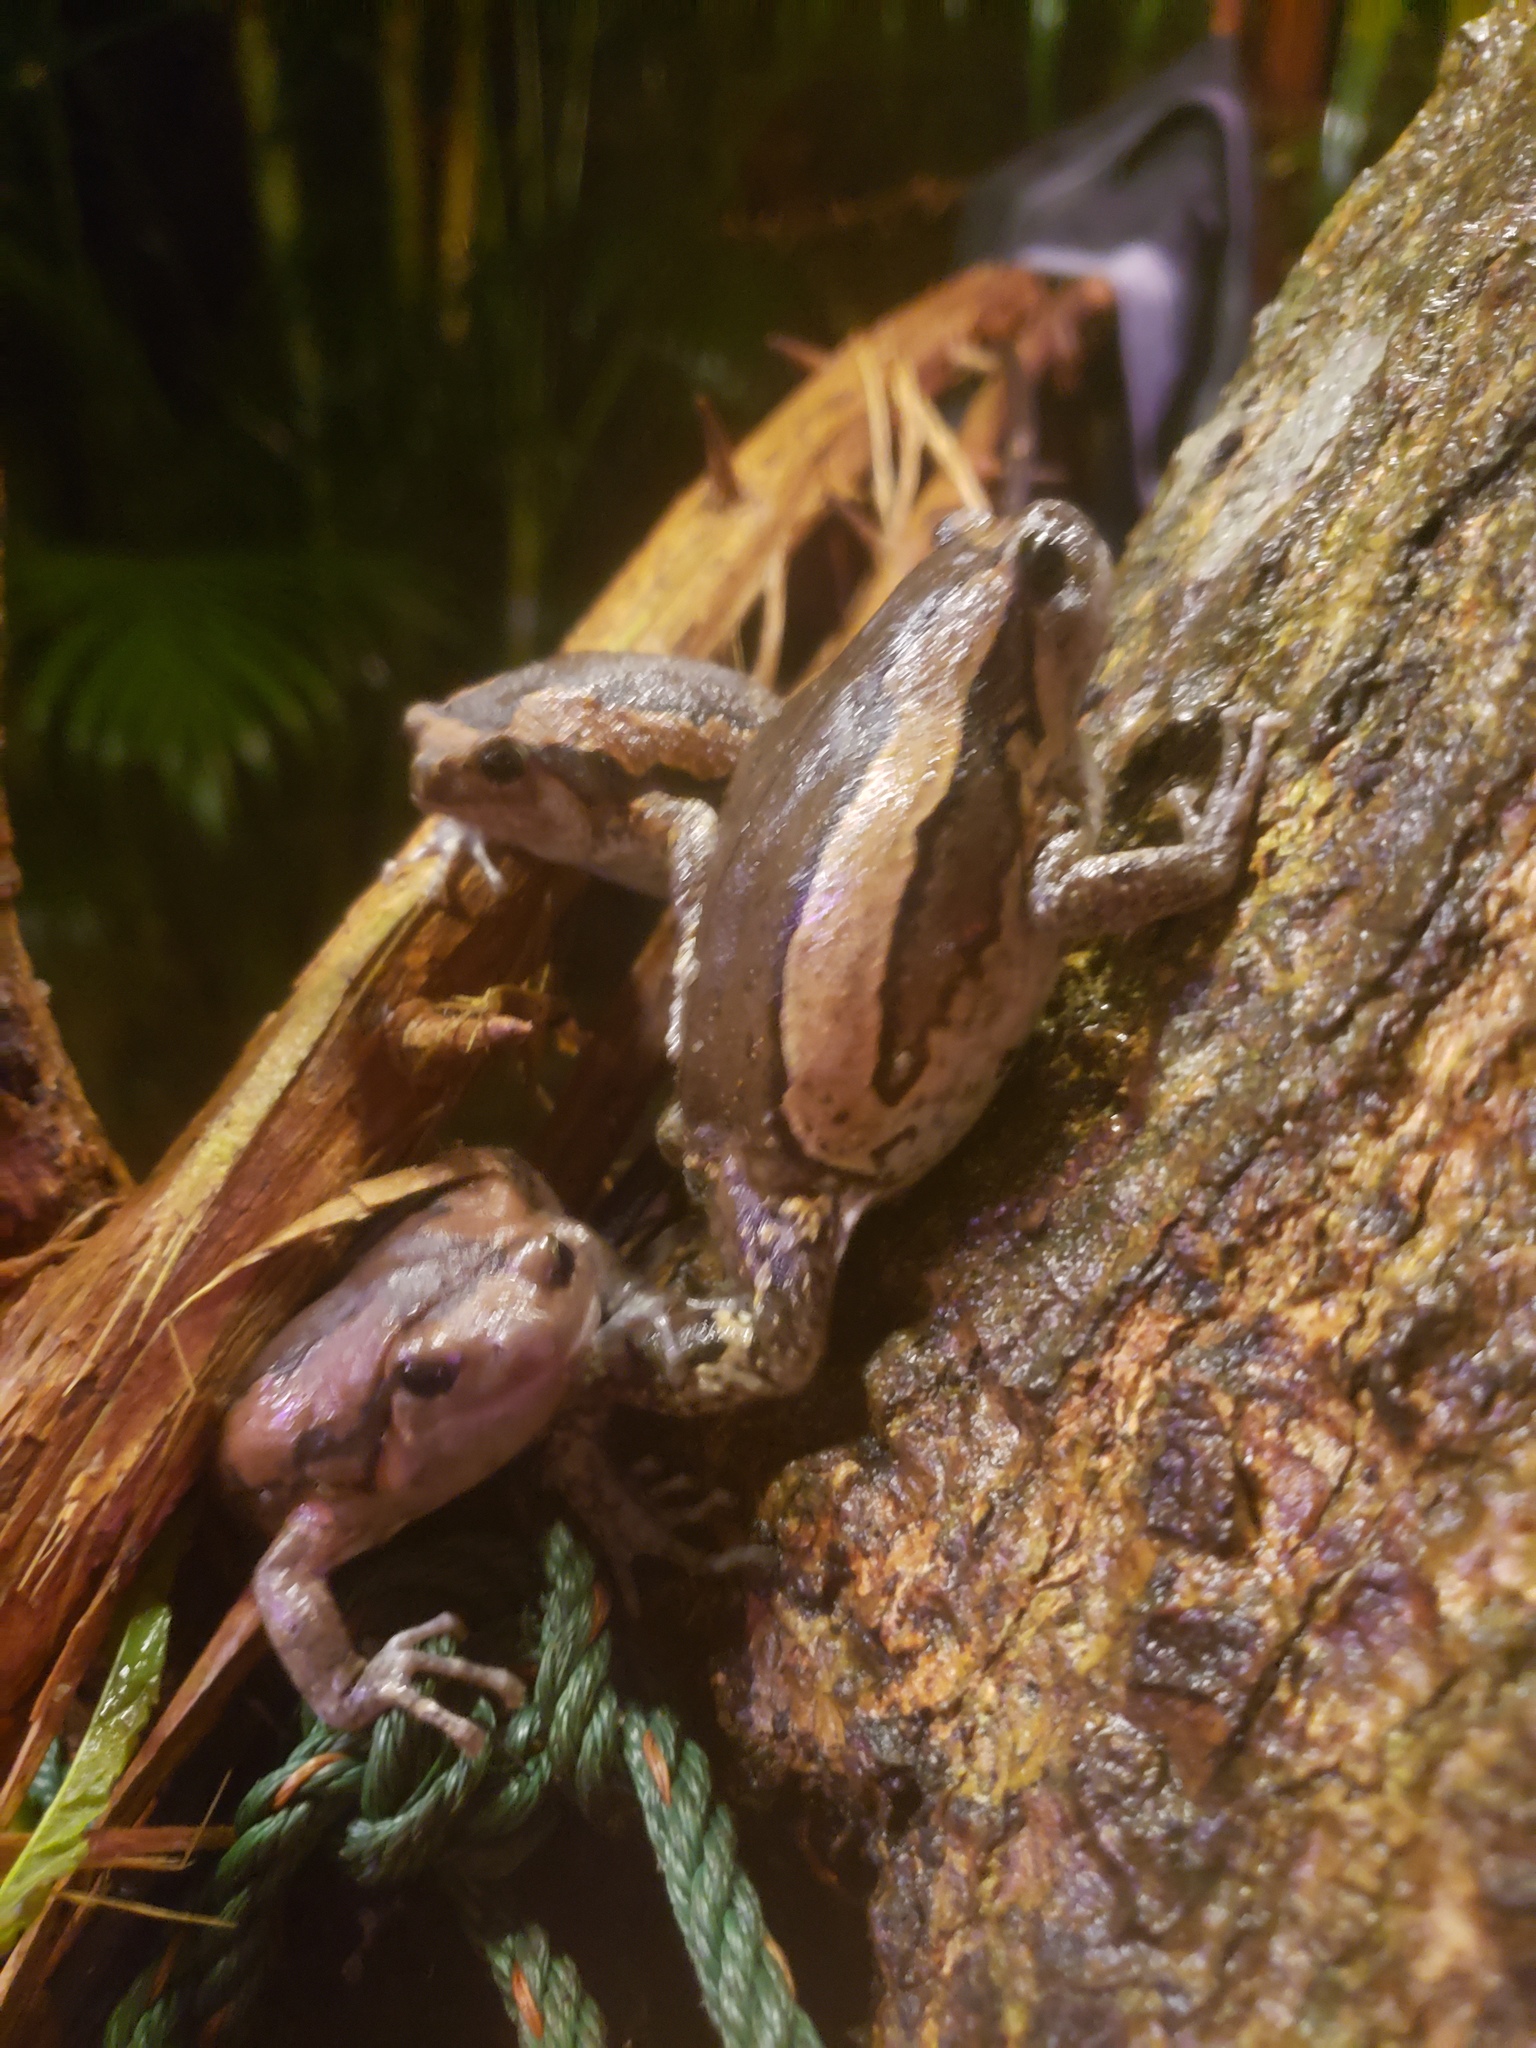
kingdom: Animalia
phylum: Chordata
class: Amphibia
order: Anura
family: Microhylidae
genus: Kaloula
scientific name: Kaloula pulchra
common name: Common,banded bullfrog
